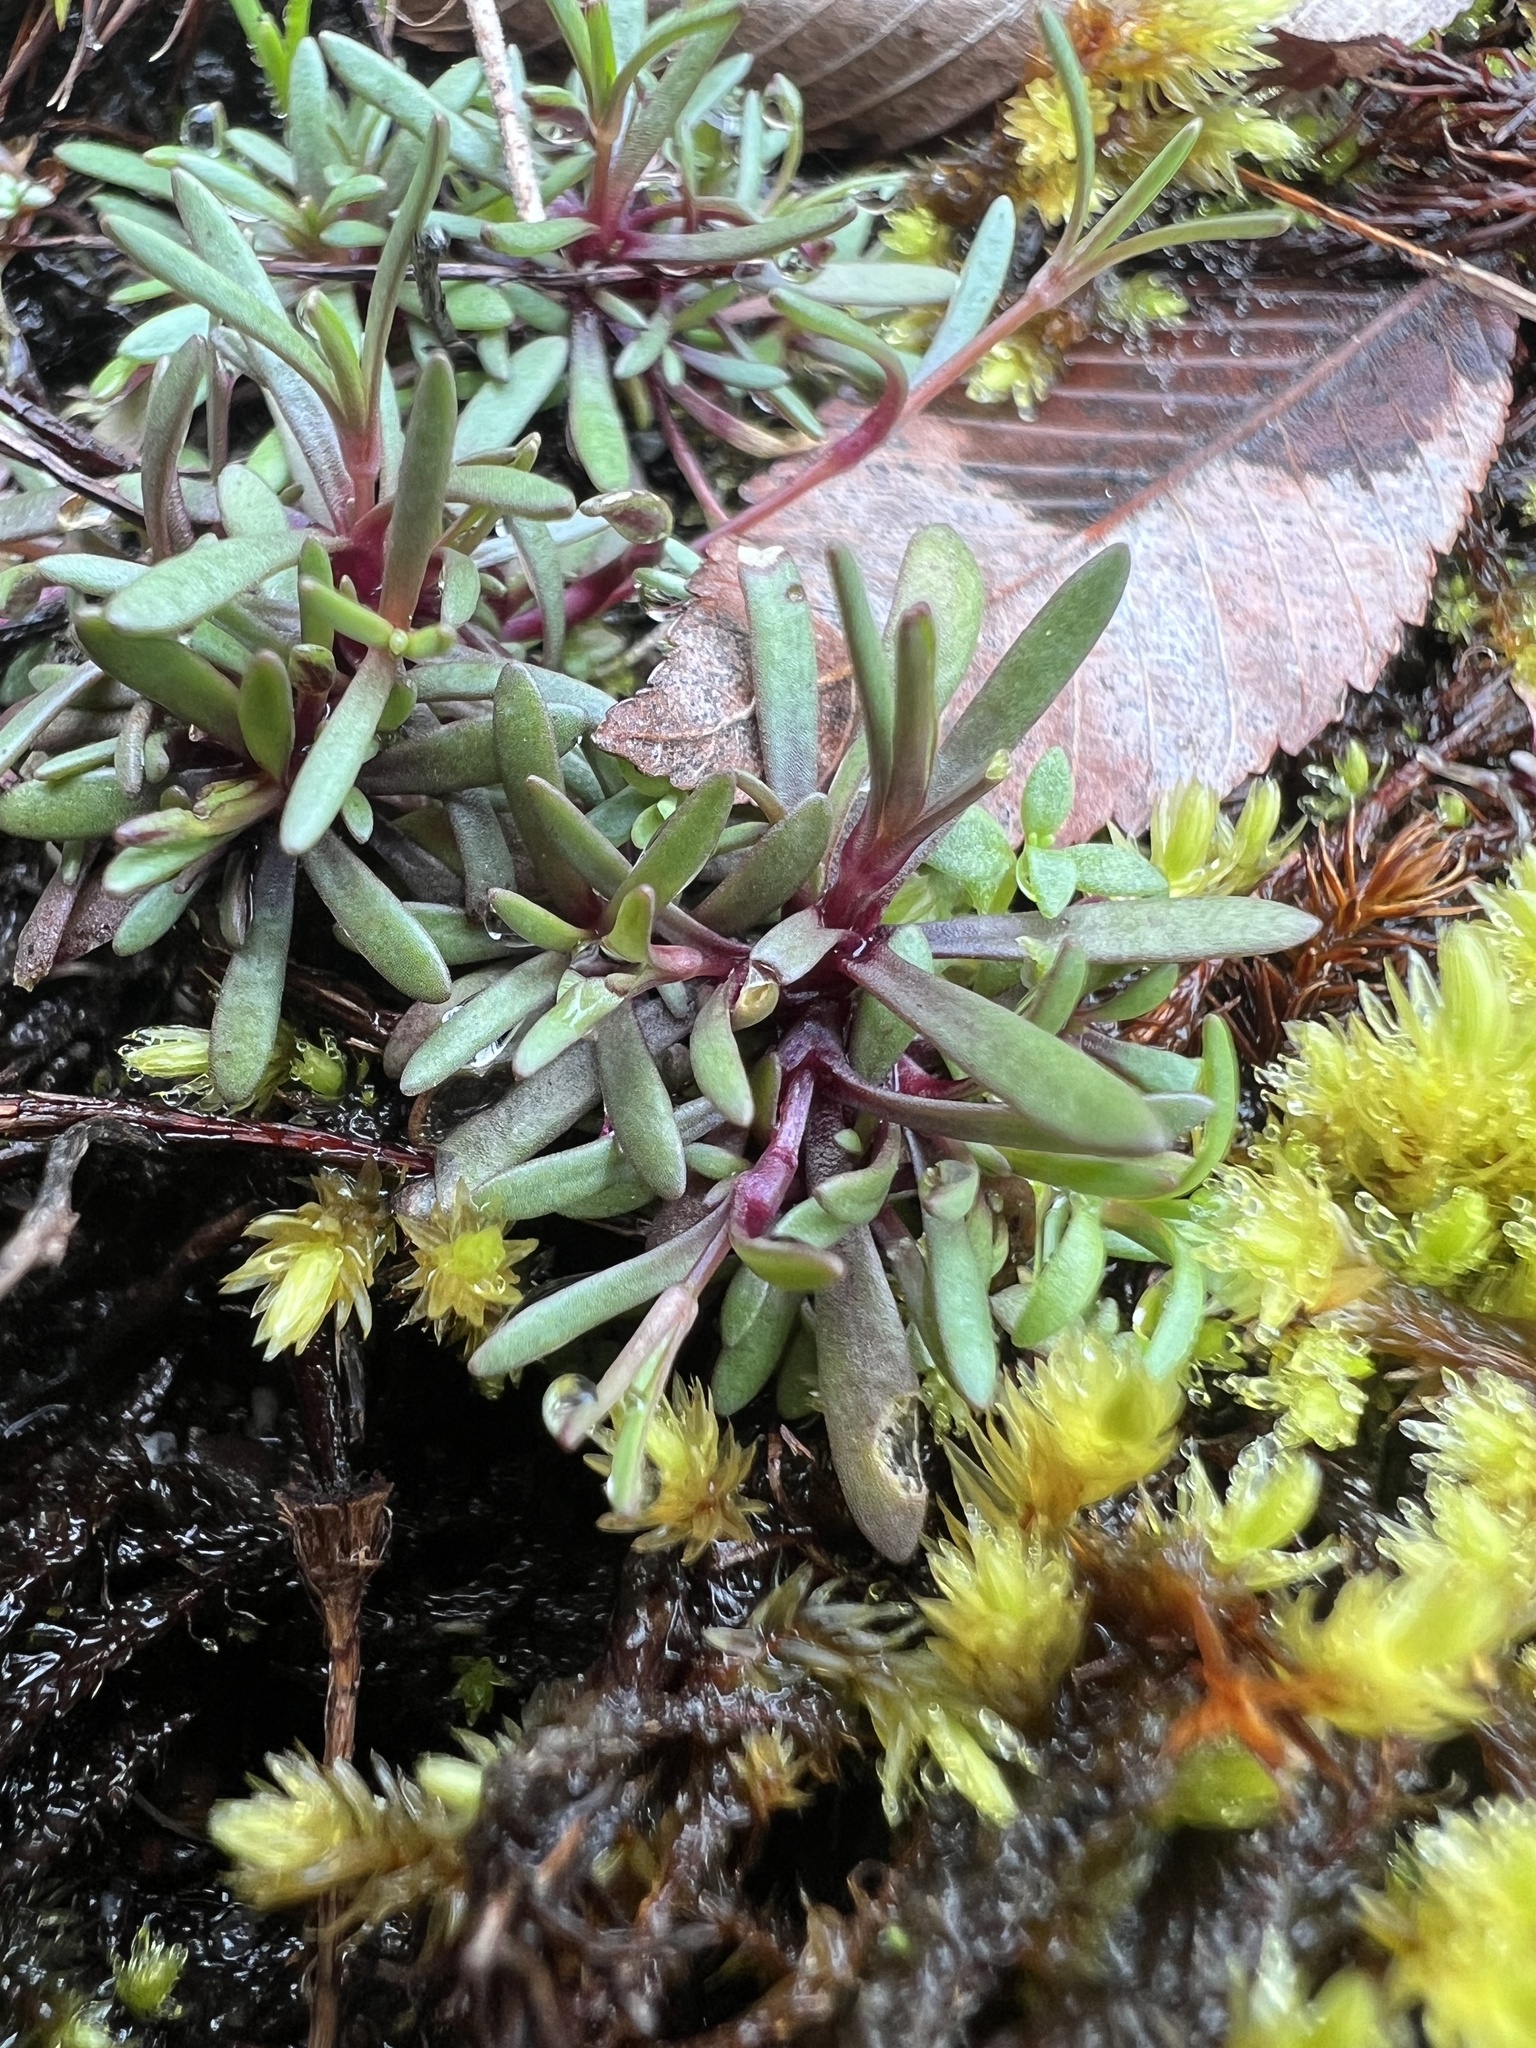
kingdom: Plantae
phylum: Tracheophyta
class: Magnoliopsida
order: Caryophyllales
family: Caryophyllaceae
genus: Geocarpon
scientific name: Geocarpon glabrum
